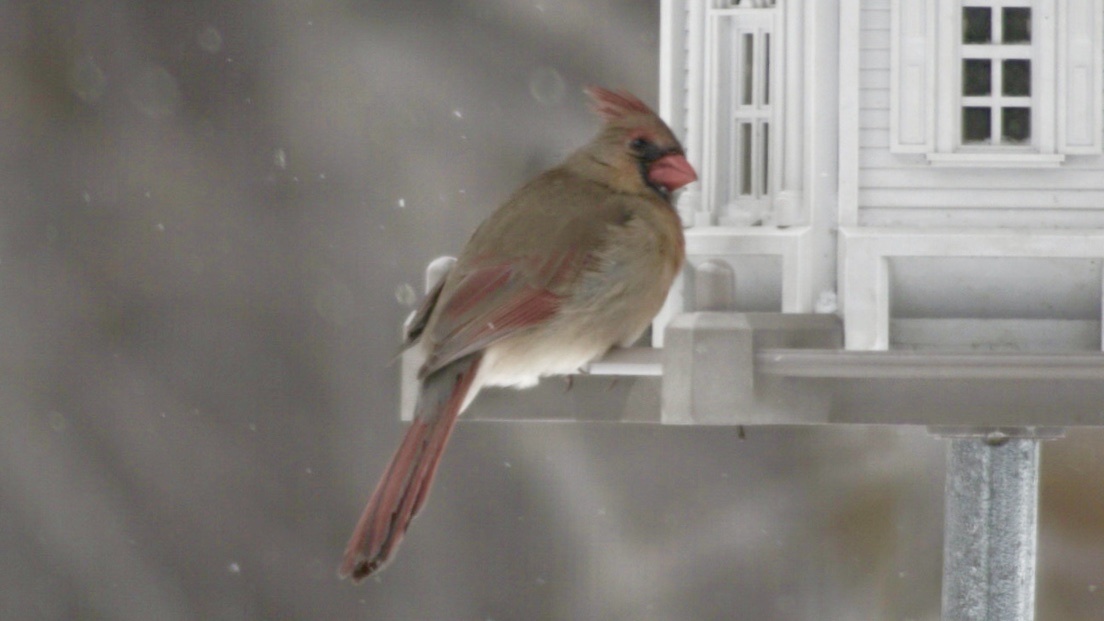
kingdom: Animalia
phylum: Chordata
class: Aves
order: Passeriformes
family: Cardinalidae
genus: Cardinalis
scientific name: Cardinalis cardinalis
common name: Northern cardinal
